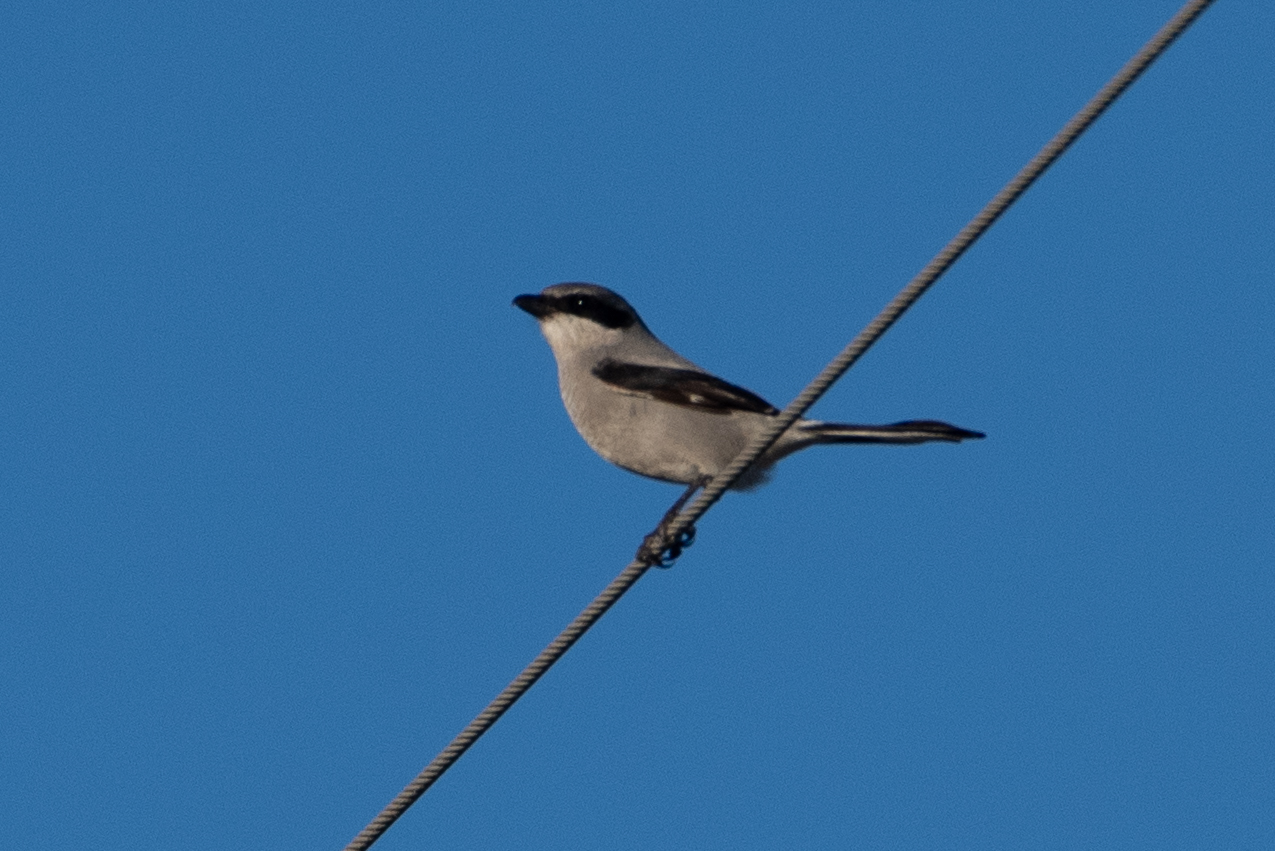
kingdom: Animalia
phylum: Chordata
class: Aves
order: Passeriformes
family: Laniidae
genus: Lanius
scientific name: Lanius ludovicianus
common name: Loggerhead shrike
